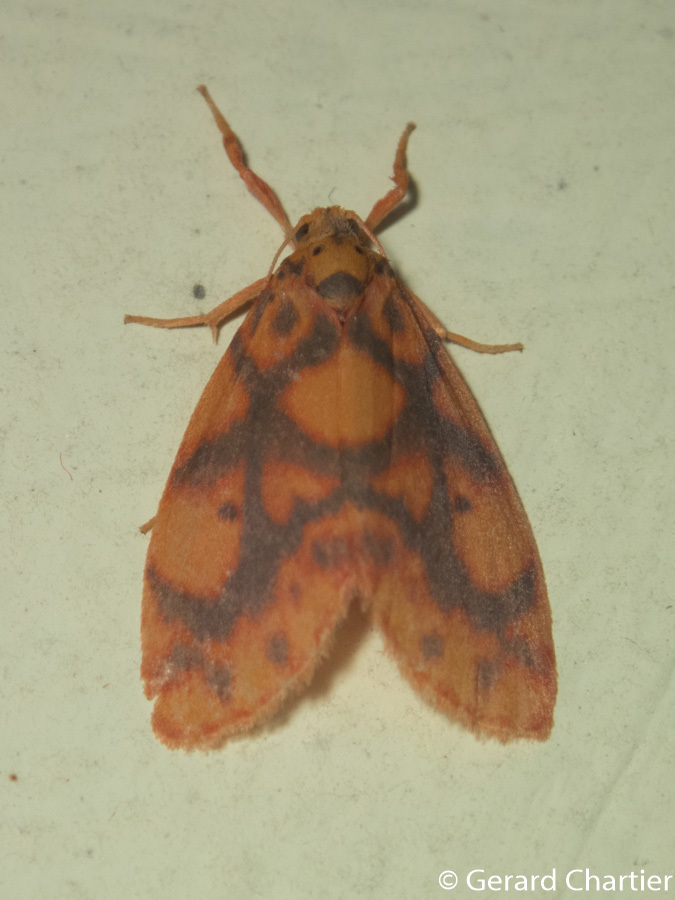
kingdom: Animalia
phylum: Arthropoda
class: Insecta
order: Lepidoptera
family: Erebidae
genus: Nanarsine
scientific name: Nanarsine porphyrea
